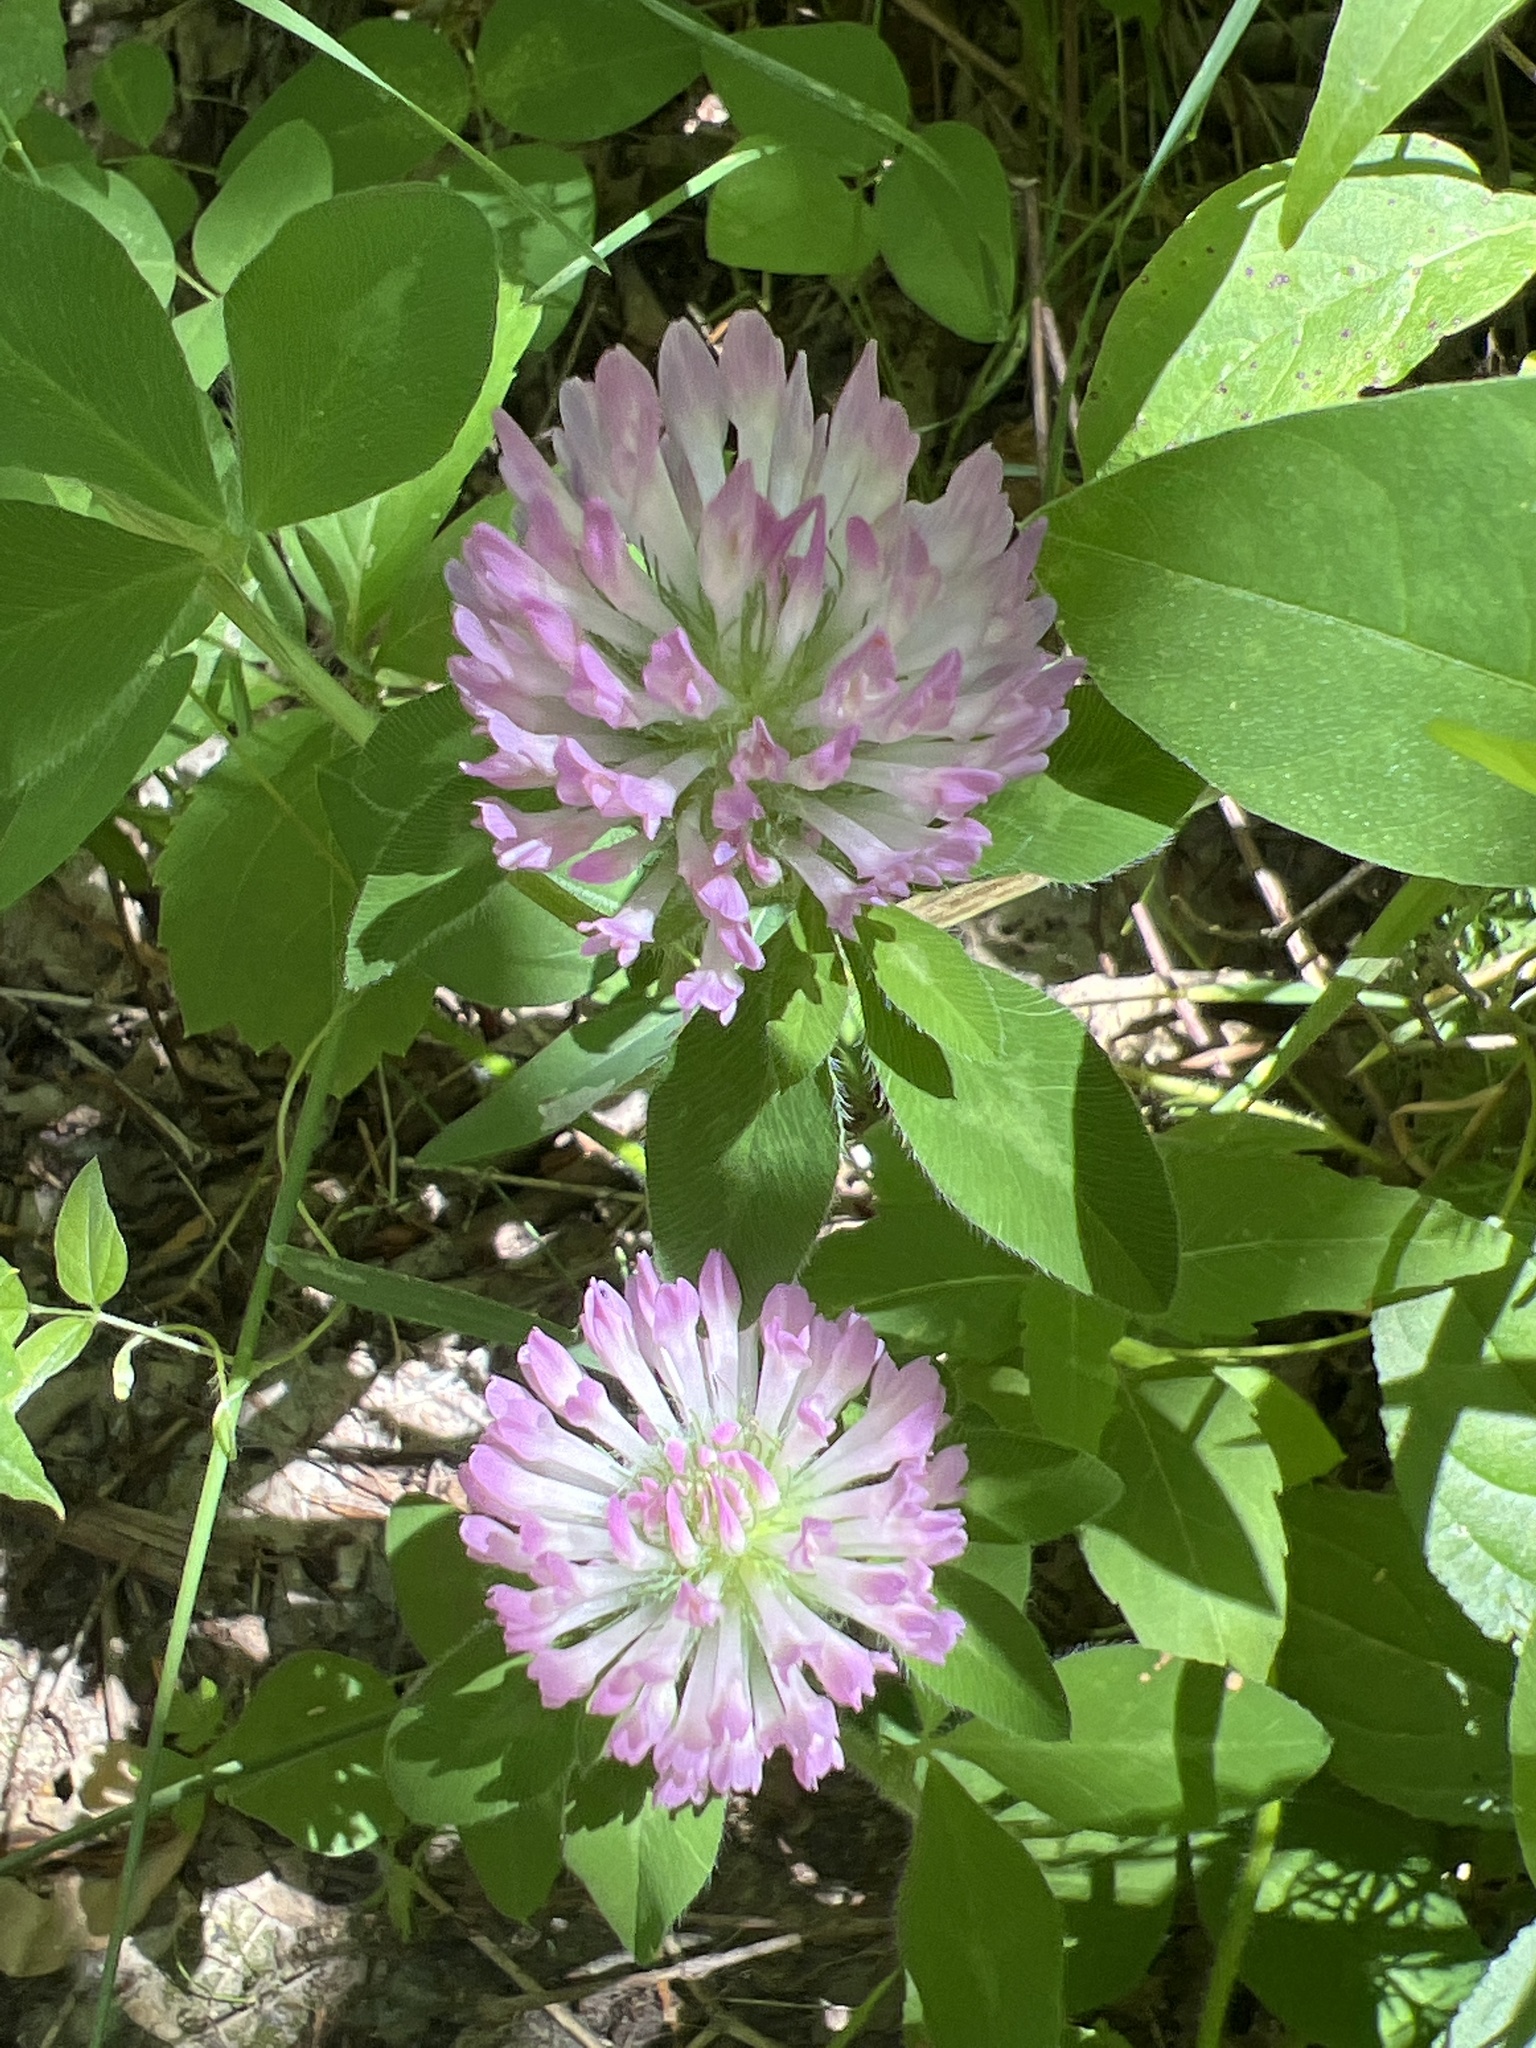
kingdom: Plantae
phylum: Tracheophyta
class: Magnoliopsida
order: Fabales
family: Fabaceae
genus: Trifolium
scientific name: Trifolium pratense
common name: Red clover
